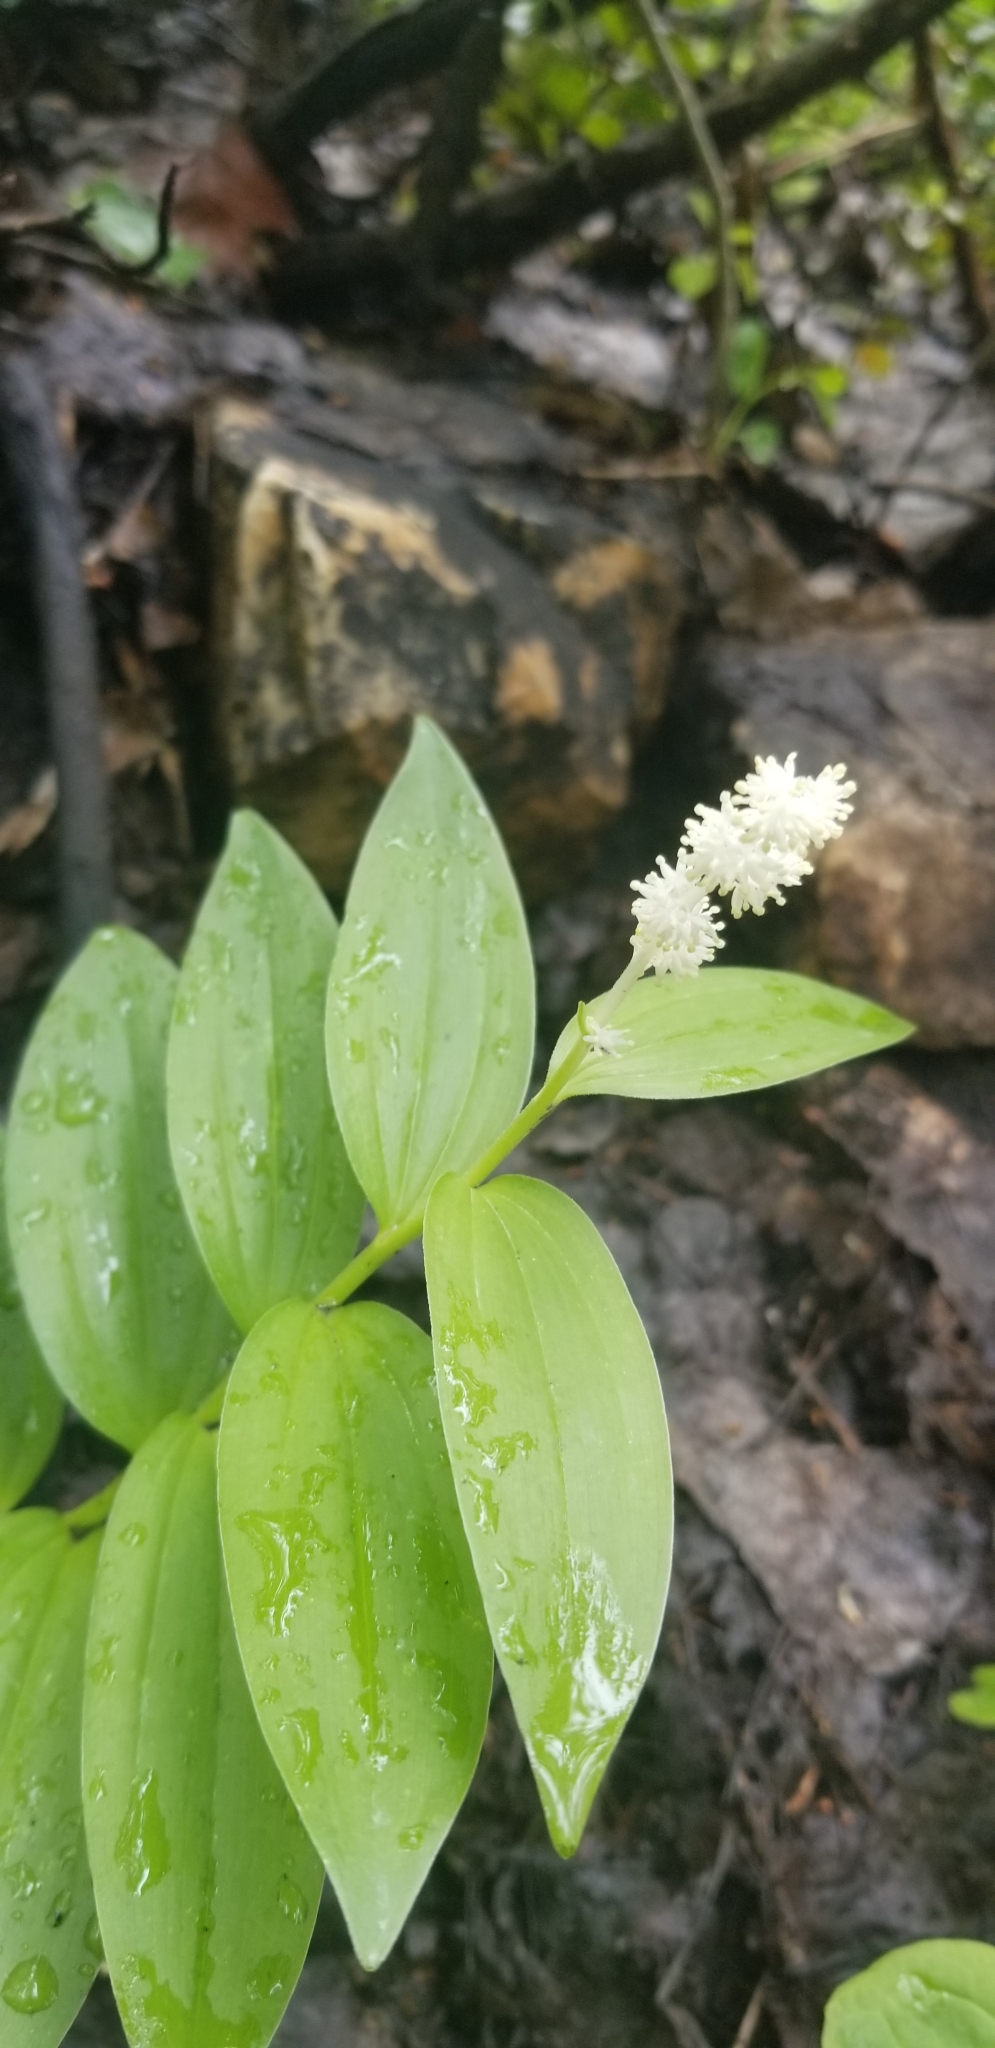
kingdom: Plantae
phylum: Tracheophyta
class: Liliopsida
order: Asparagales
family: Asparagaceae
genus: Maianthemum
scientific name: Maianthemum racemosum
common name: False spikenard
